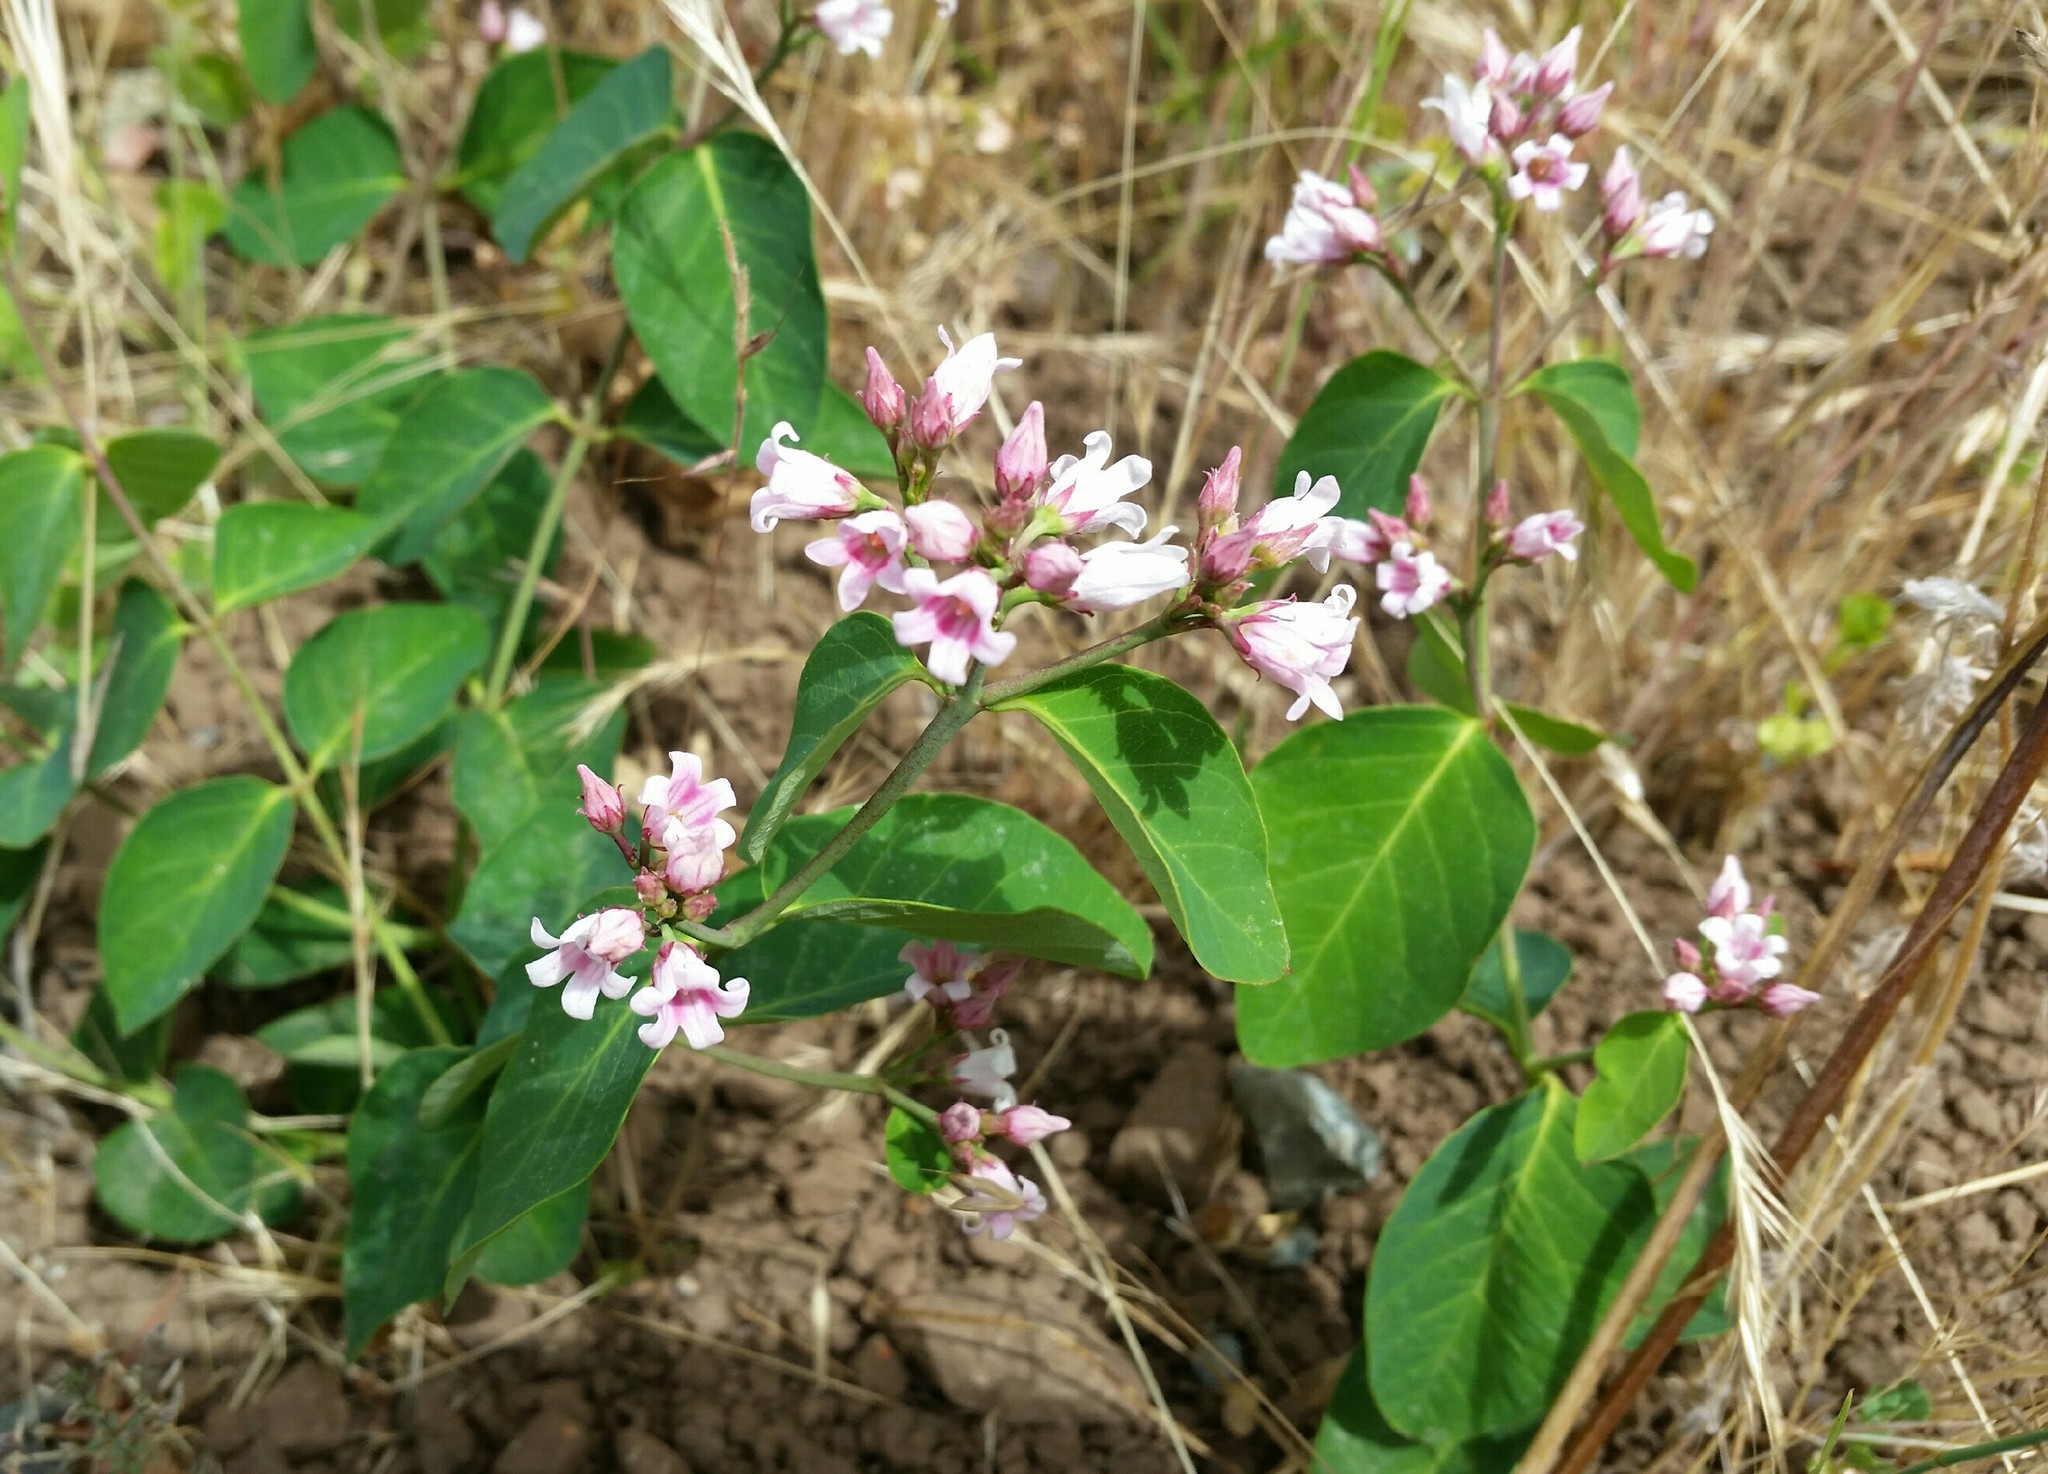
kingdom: Plantae
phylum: Tracheophyta
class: Magnoliopsida
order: Gentianales
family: Apocynaceae
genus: Apocynum
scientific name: Apocynum androsaemifolium
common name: Spreading dogbane
